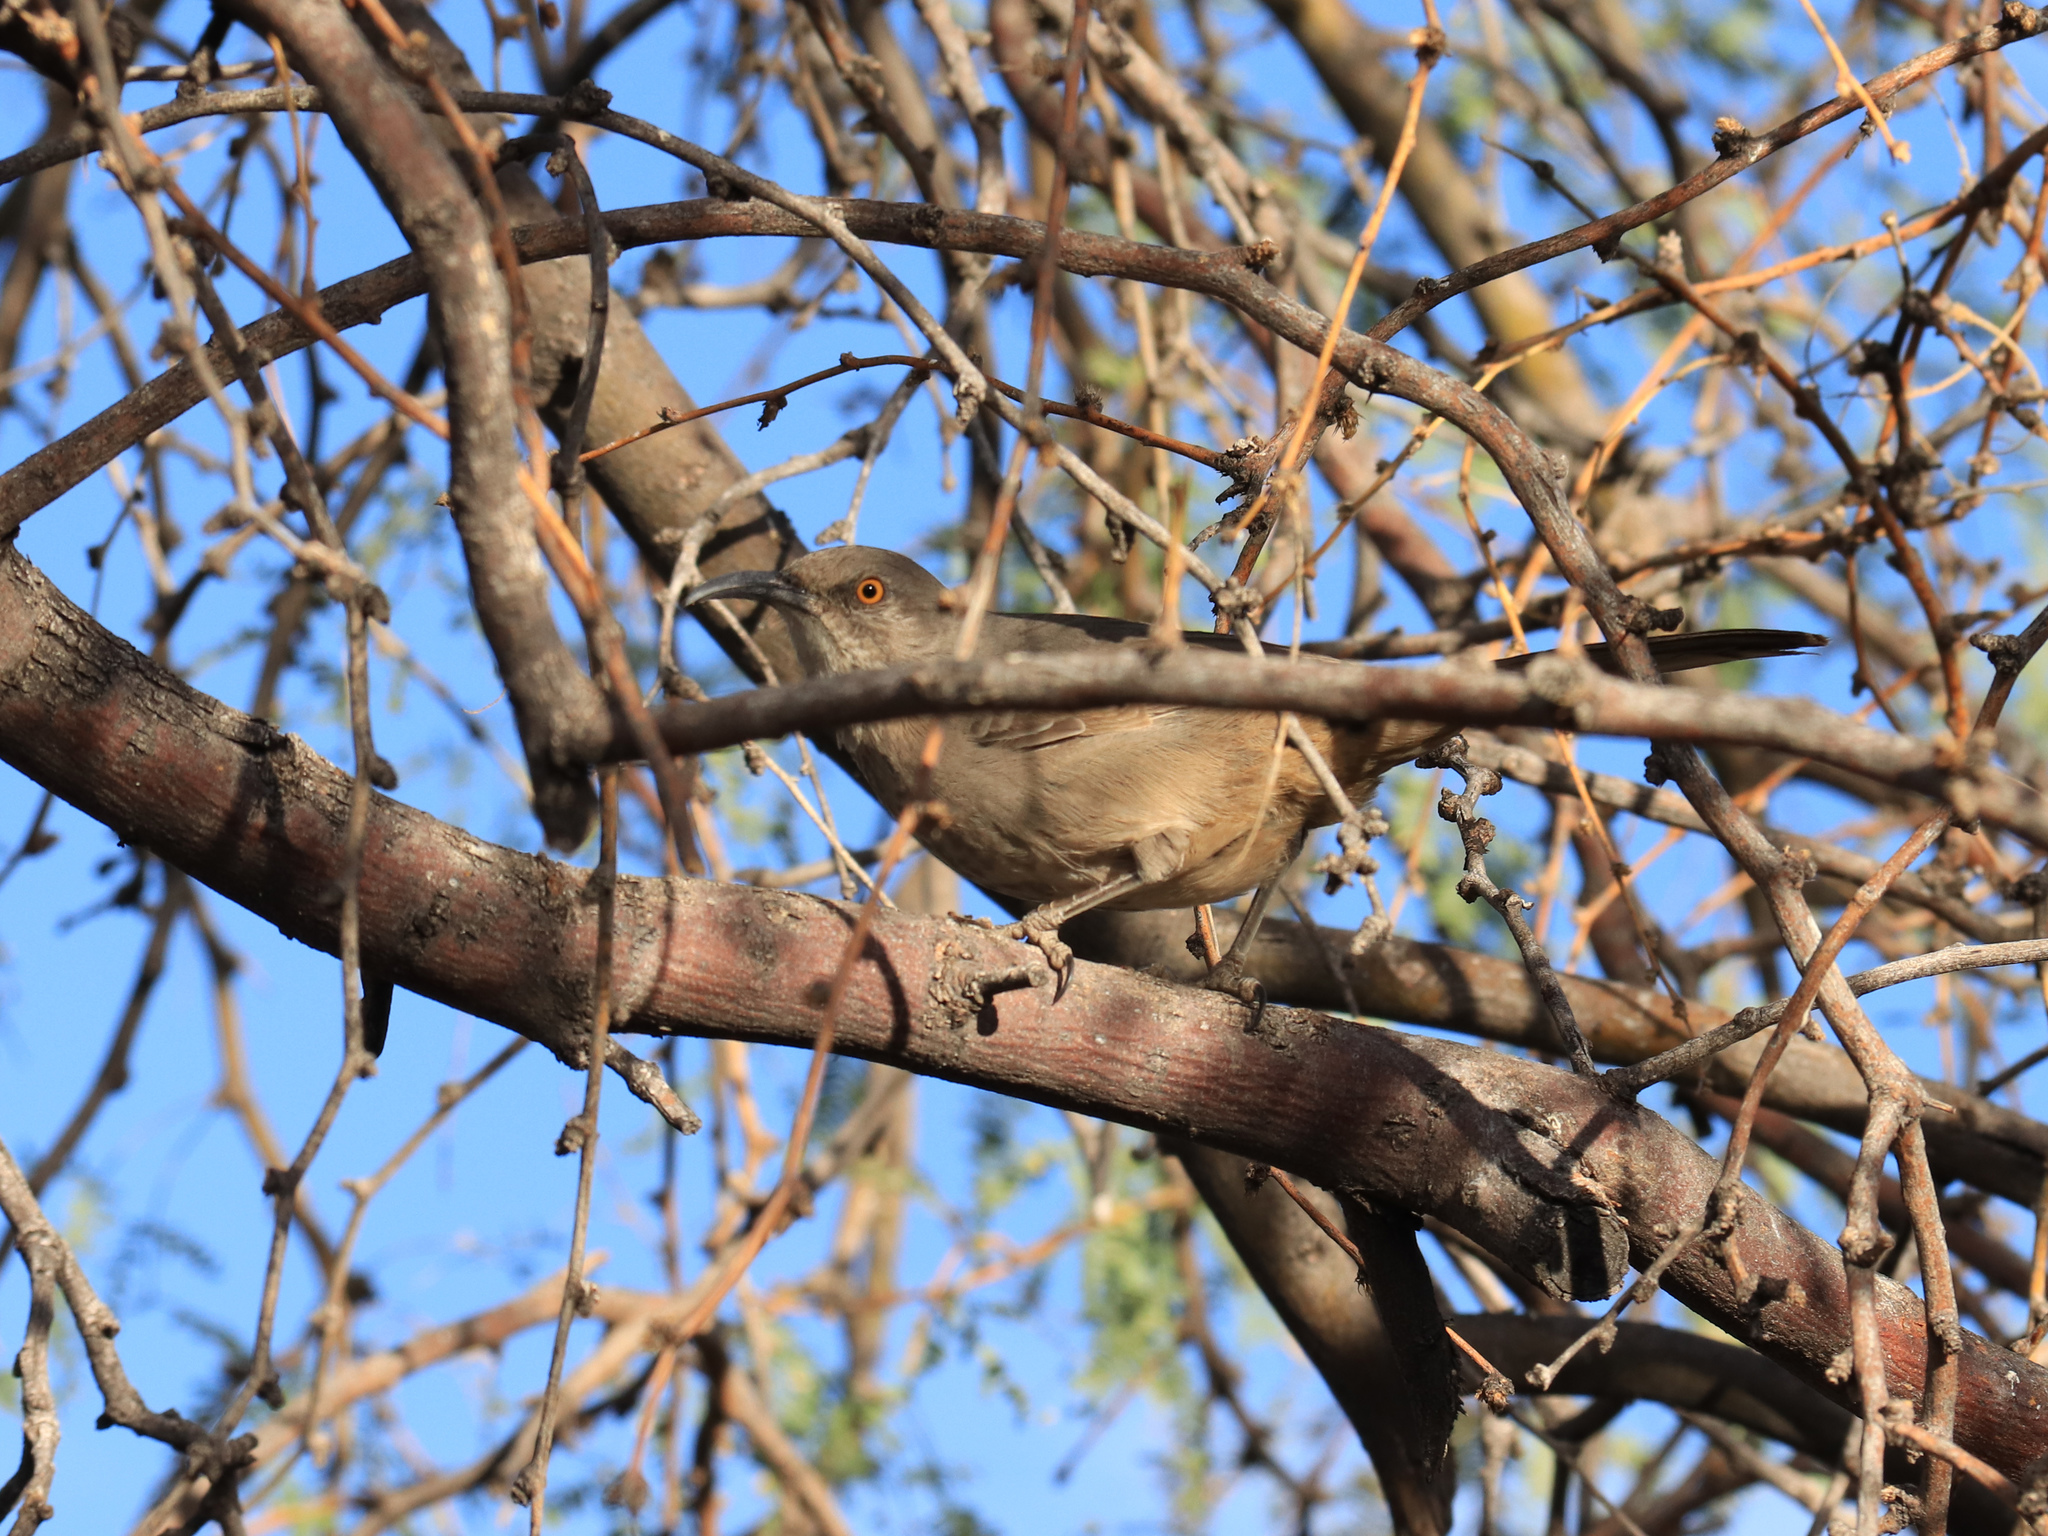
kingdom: Animalia
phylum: Chordata
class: Aves
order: Passeriformes
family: Mimidae
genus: Toxostoma
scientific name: Toxostoma curvirostre
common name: Curve-billed thrasher
